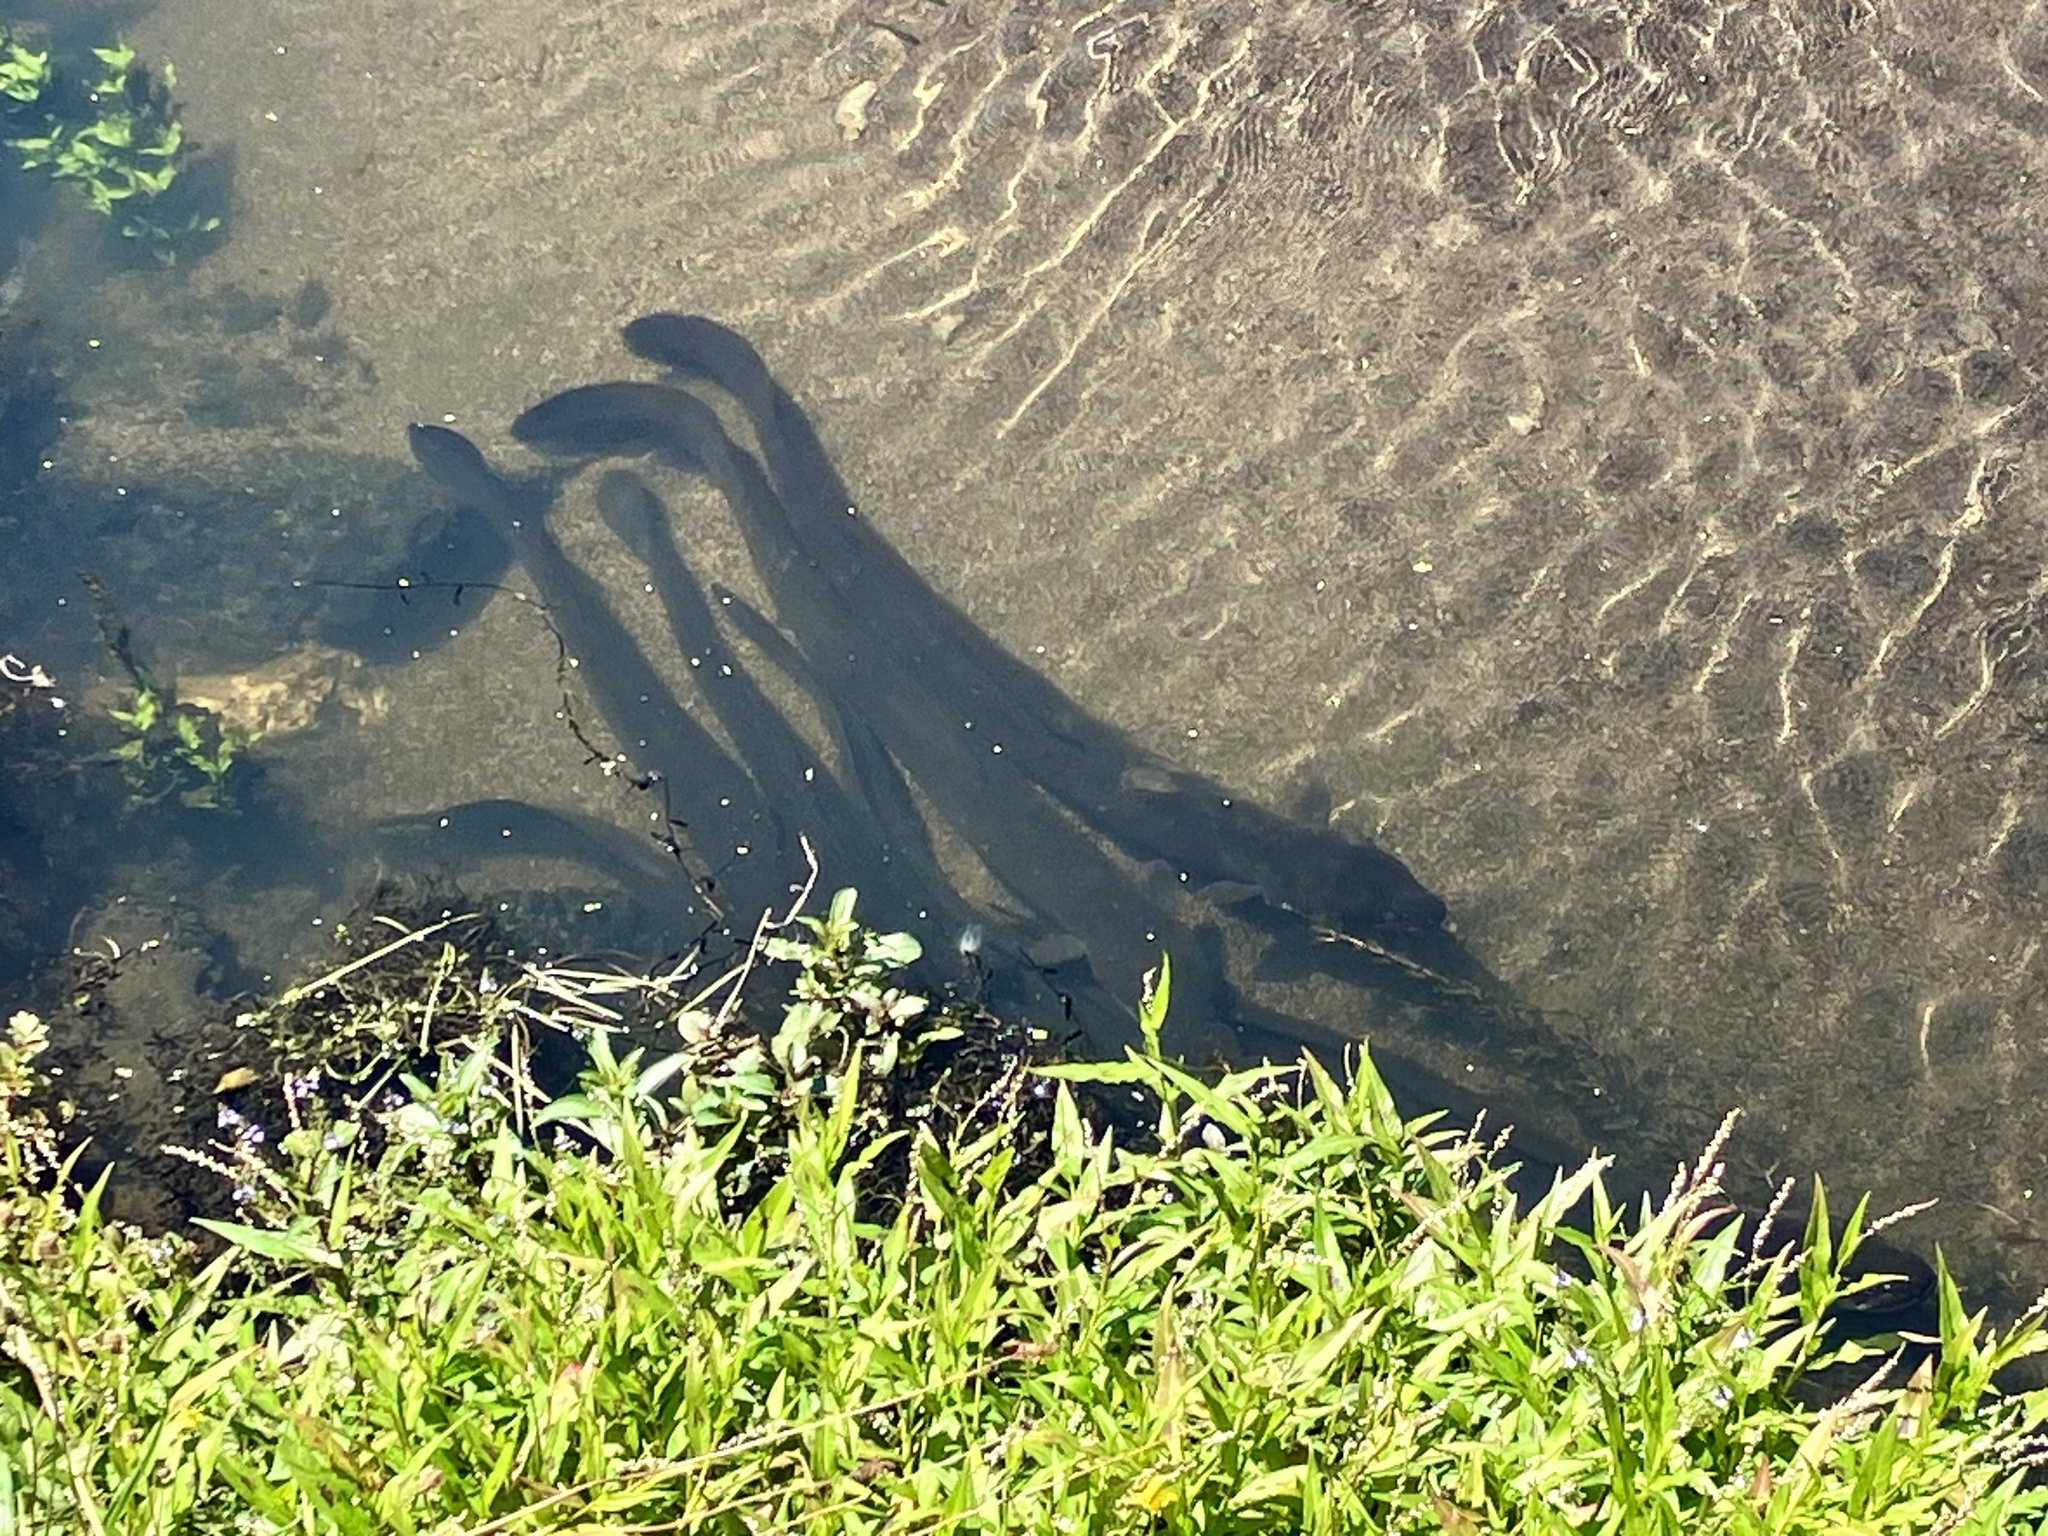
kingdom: Animalia
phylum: Chordata
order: Anguilliformes
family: Anguillidae
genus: Anguilla
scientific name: Anguilla dieffenbachii
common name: New zealand longfin eel
